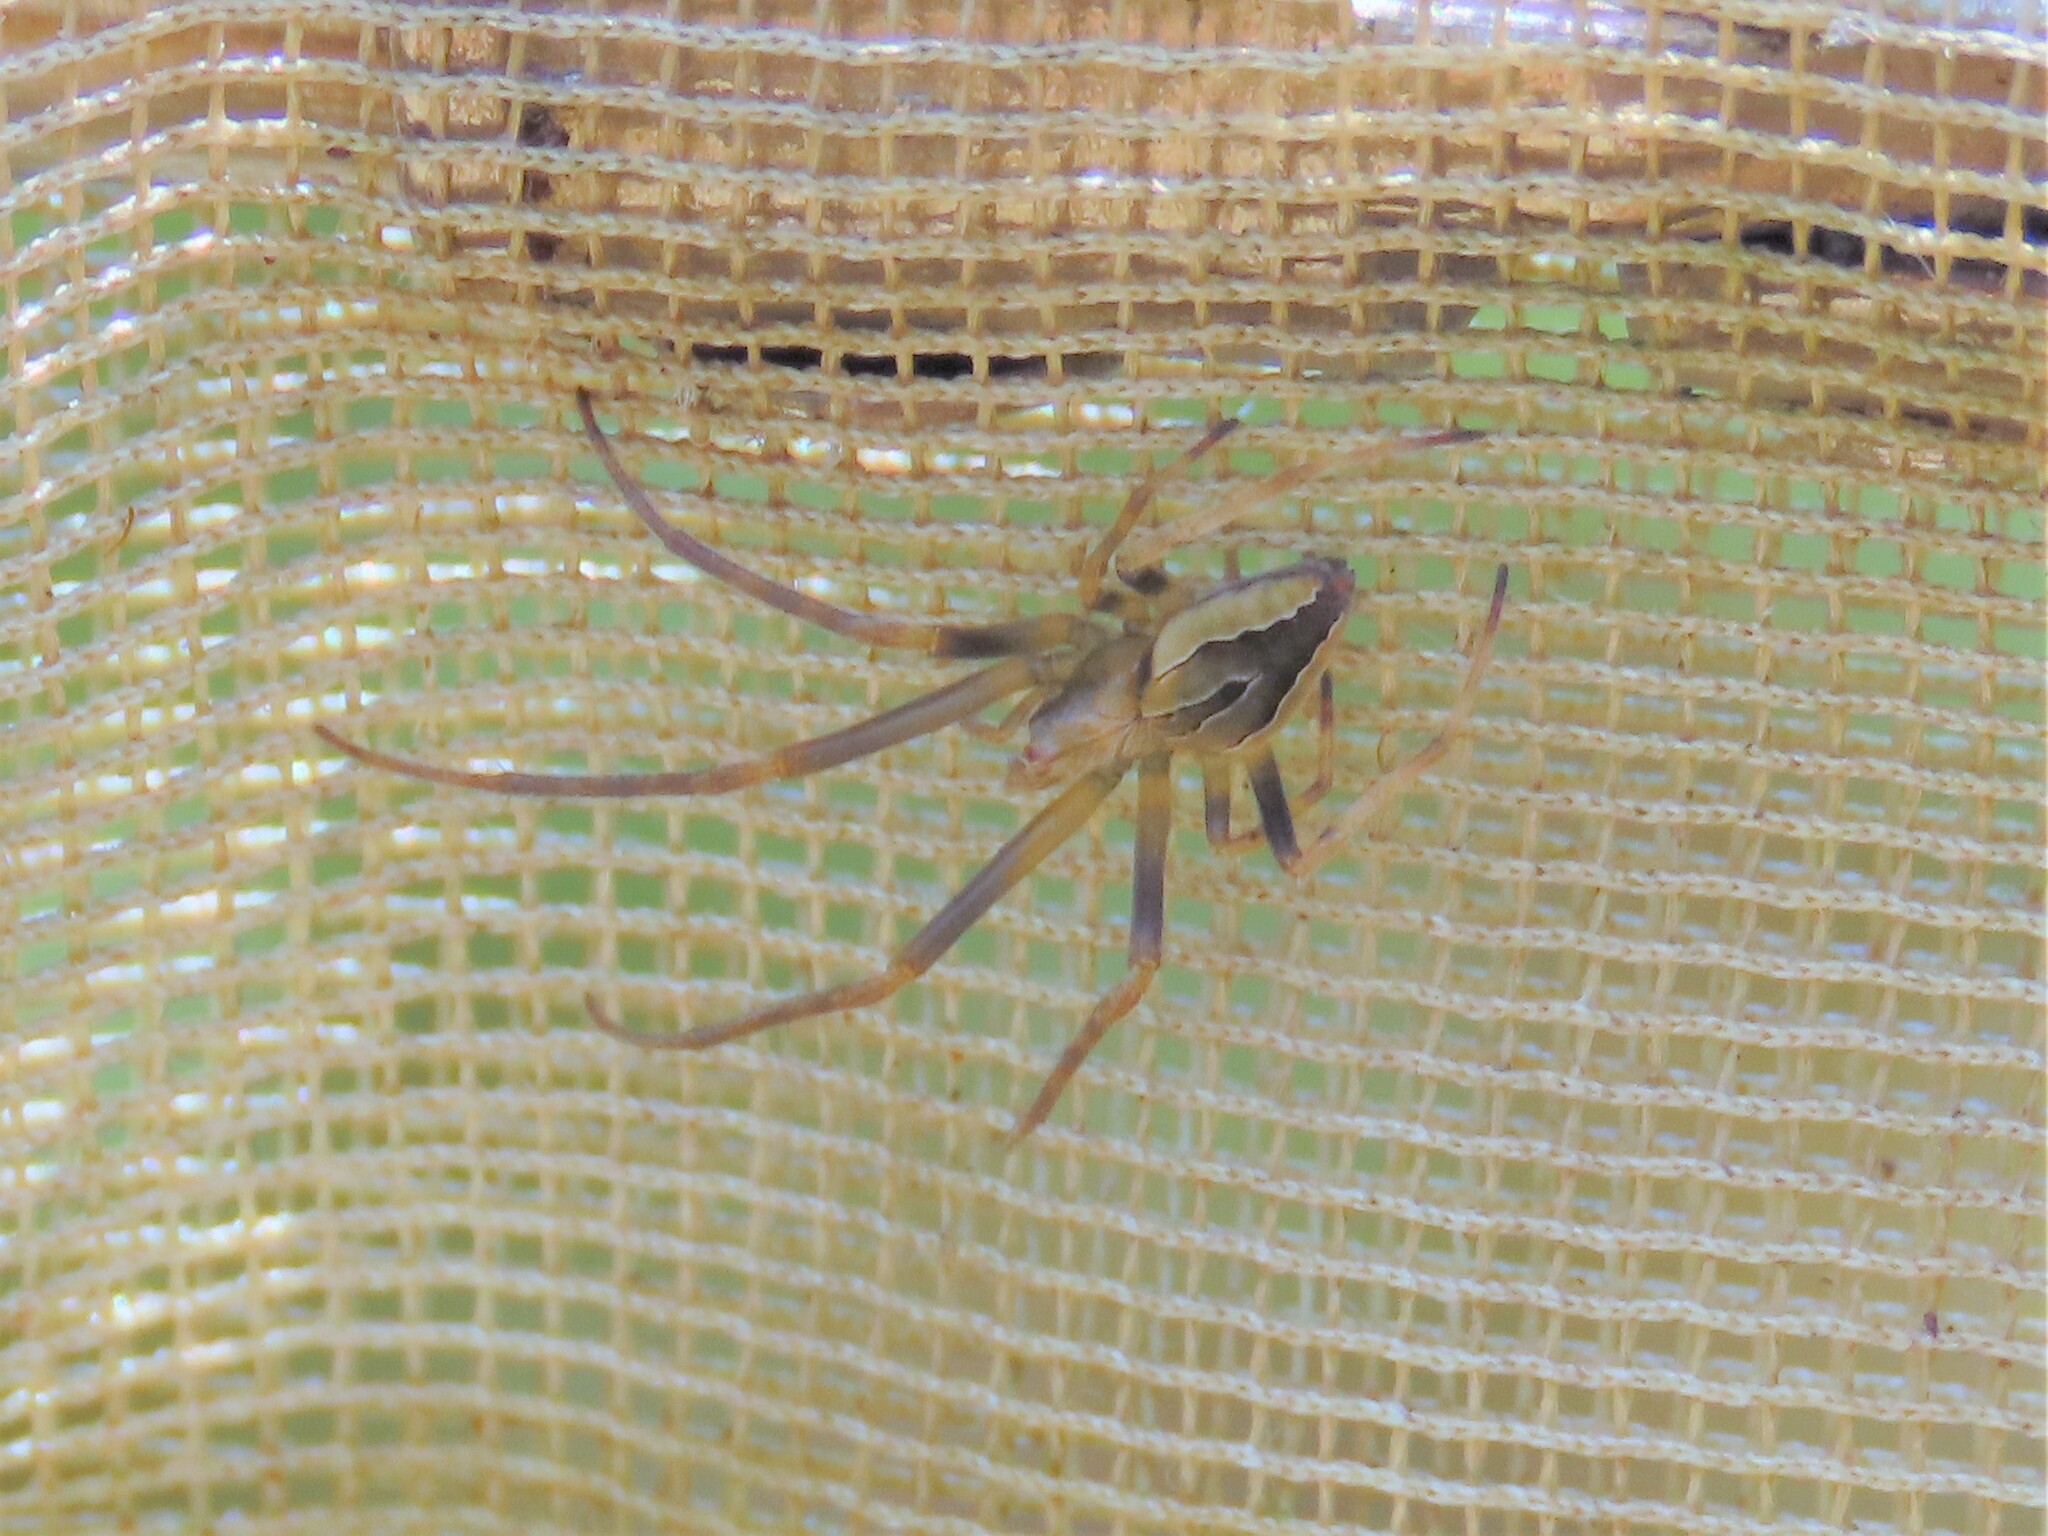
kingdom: Animalia
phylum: Arthropoda
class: Arachnida
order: Araneae
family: Araneidae
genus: Acacesia
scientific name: Acacesia hamata
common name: Orb weavers
